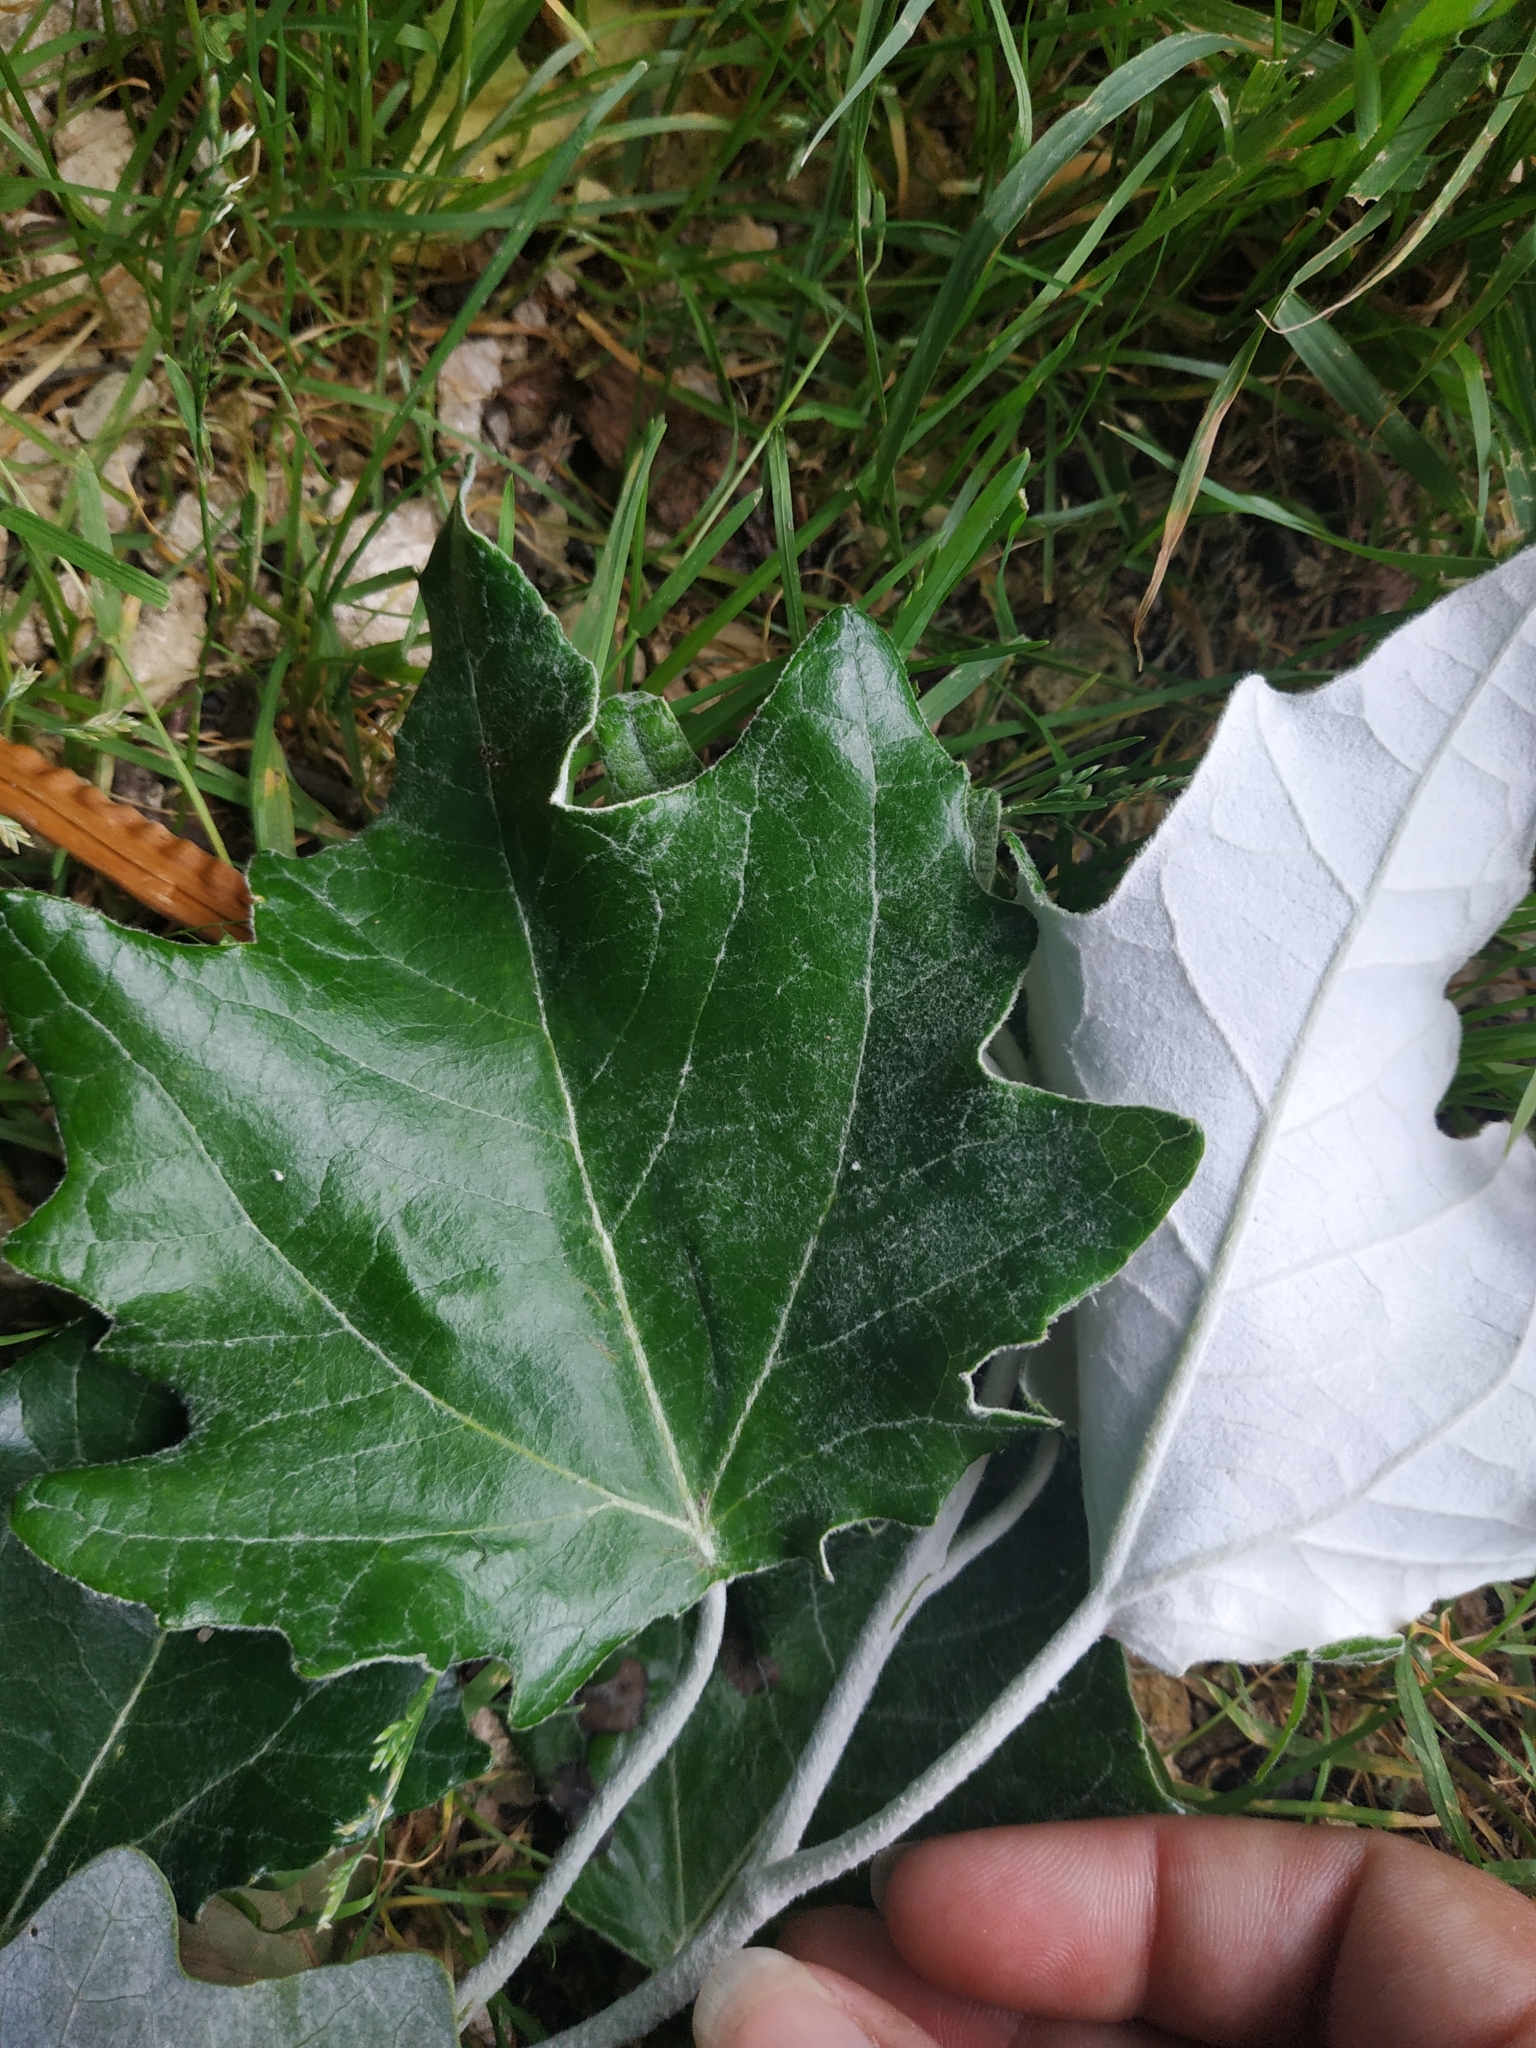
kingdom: Plantae
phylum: Tracheophyta
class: Magnoliopsida
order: Malpighiales
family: Salicaceae
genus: Populus
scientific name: Populus alba
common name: White poplar
